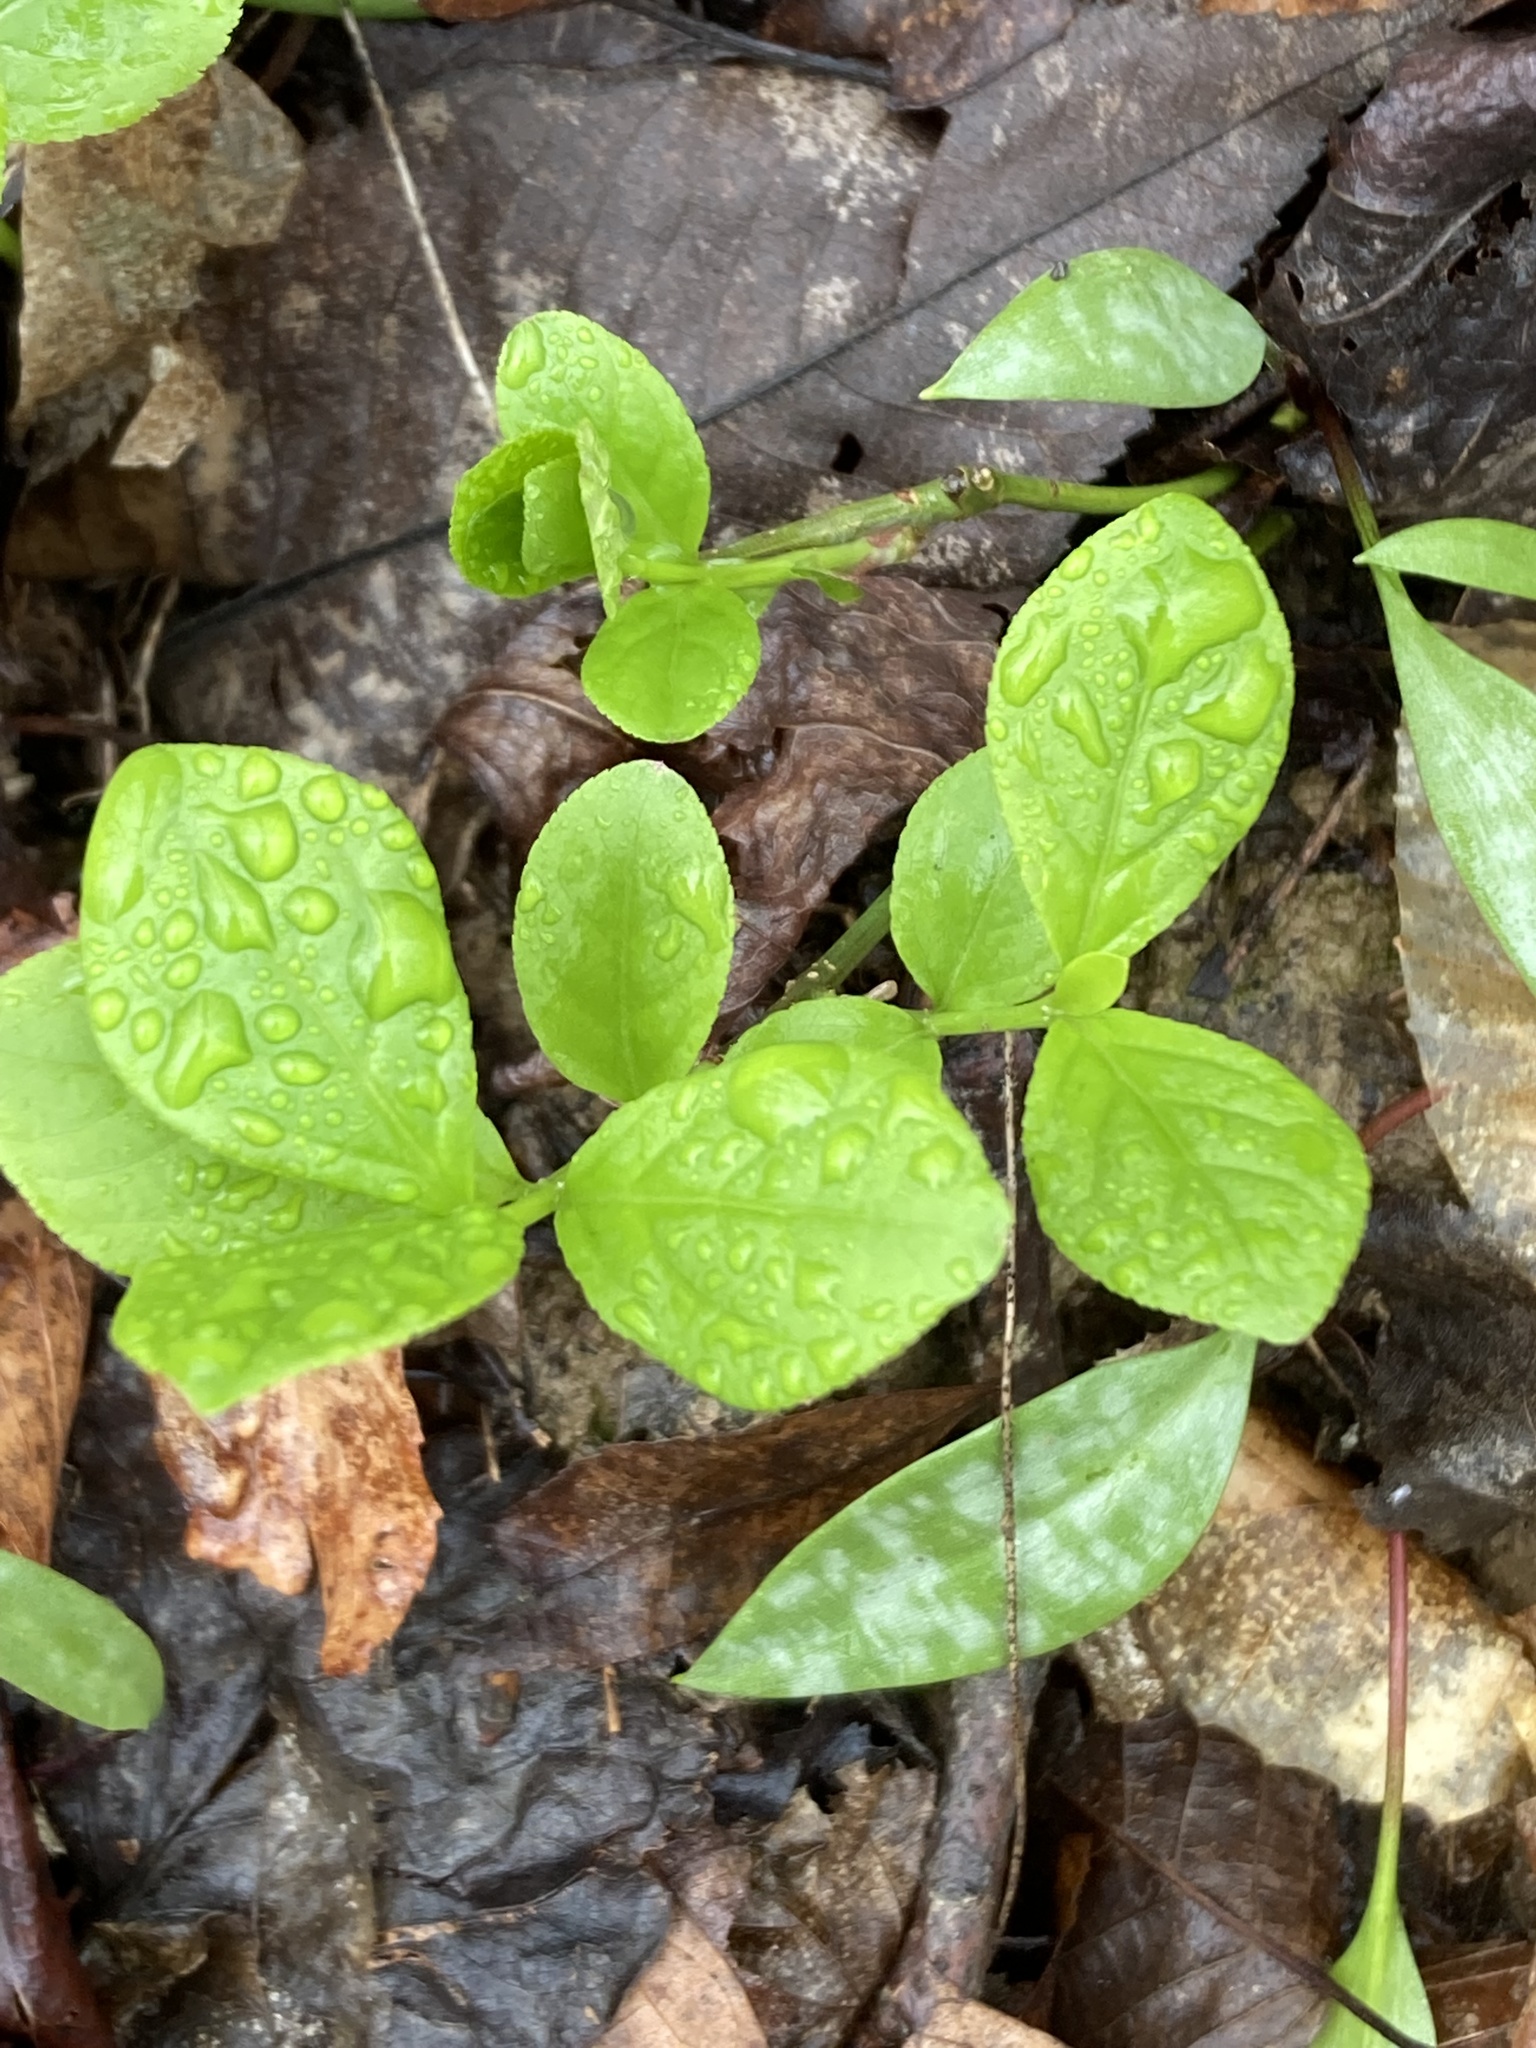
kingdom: Plantae
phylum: Tracheophyta
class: Magnoliopsida
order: Celastrales
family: Celastraceae
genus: Euonymus
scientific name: Euonymus obovatus
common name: Running strawberry-bush
